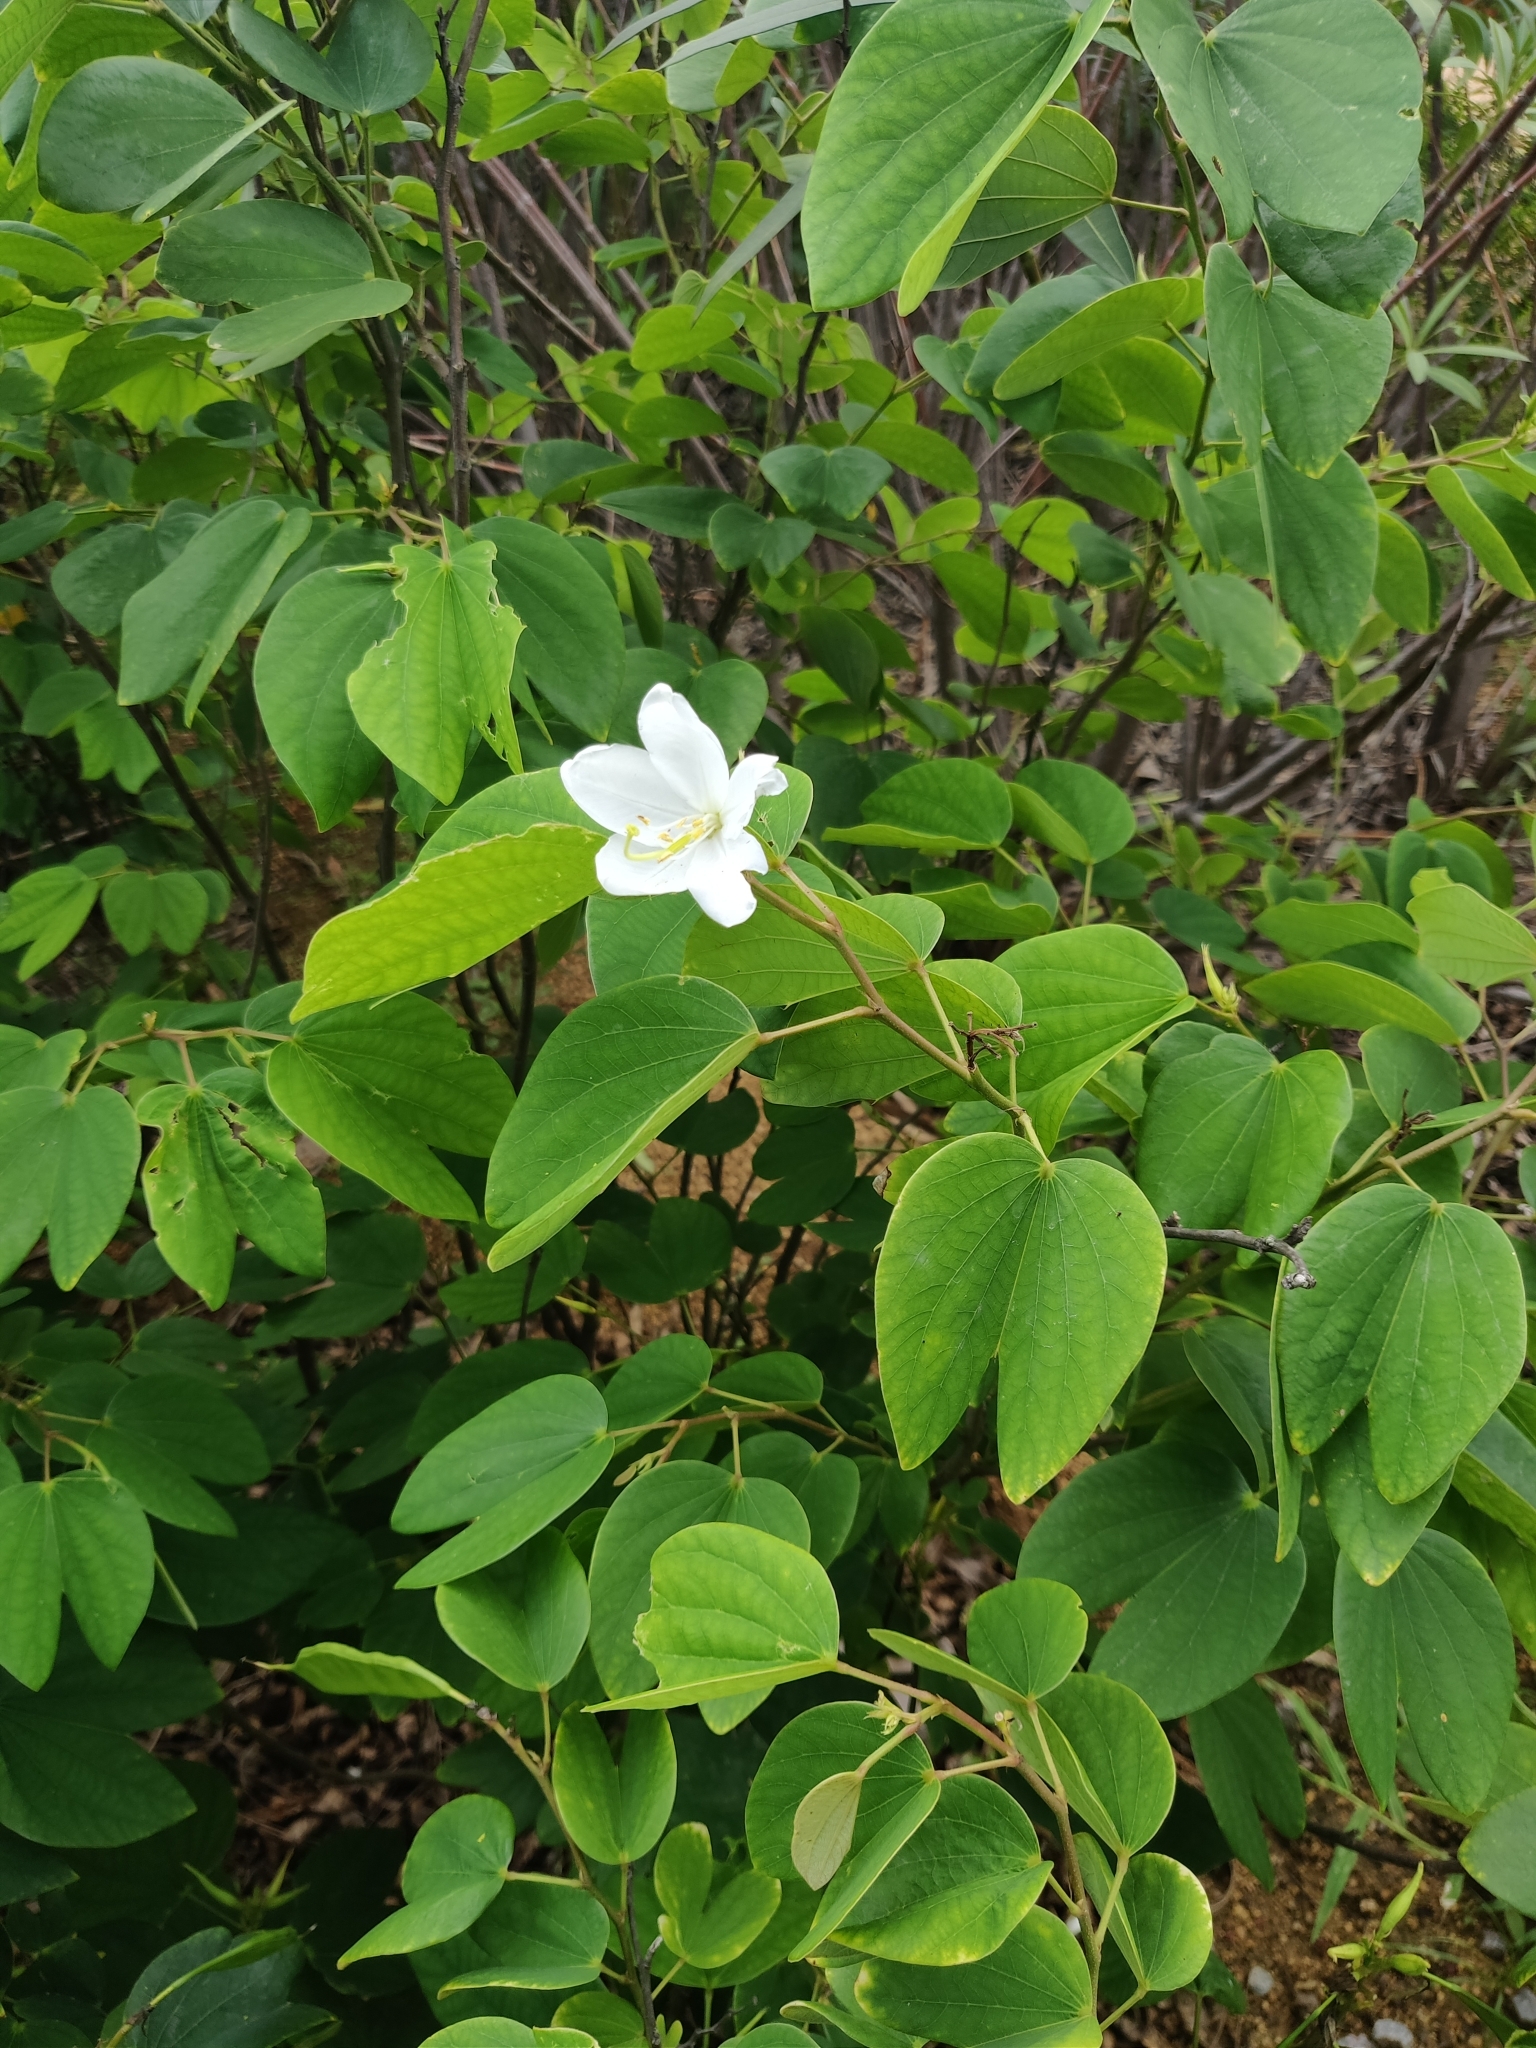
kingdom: Plantae
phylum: Tracheophyta
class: Magnoliopsida
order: Fabales
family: Fabaceae
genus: Bauhinia
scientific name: Bauhinia acuminata
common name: Dwarf white bauhinia
